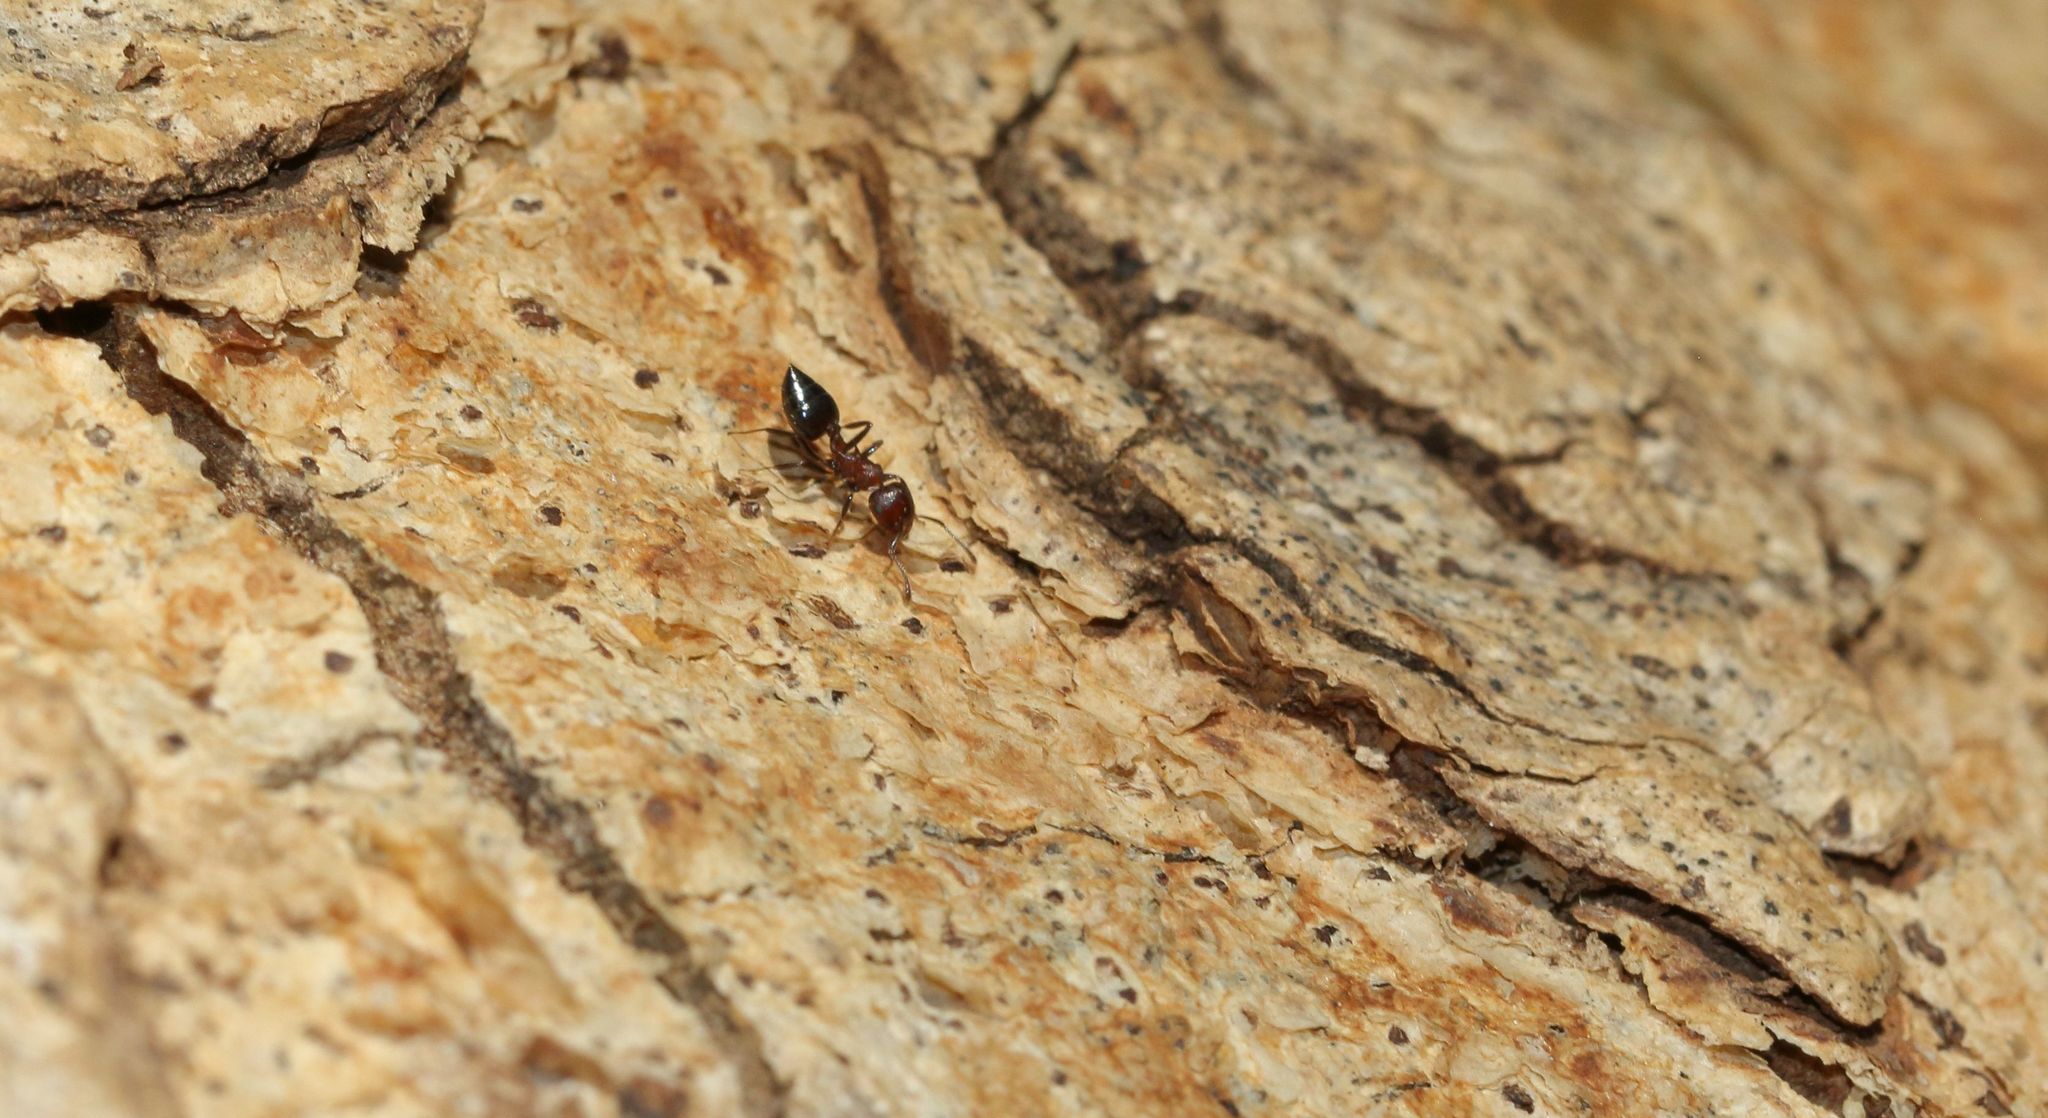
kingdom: Plantae
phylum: Tracheophyta
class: Magnoliopsida
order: Rosales
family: Moraceae
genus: Ficus
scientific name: Ficus sycomorus
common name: Sycomore
